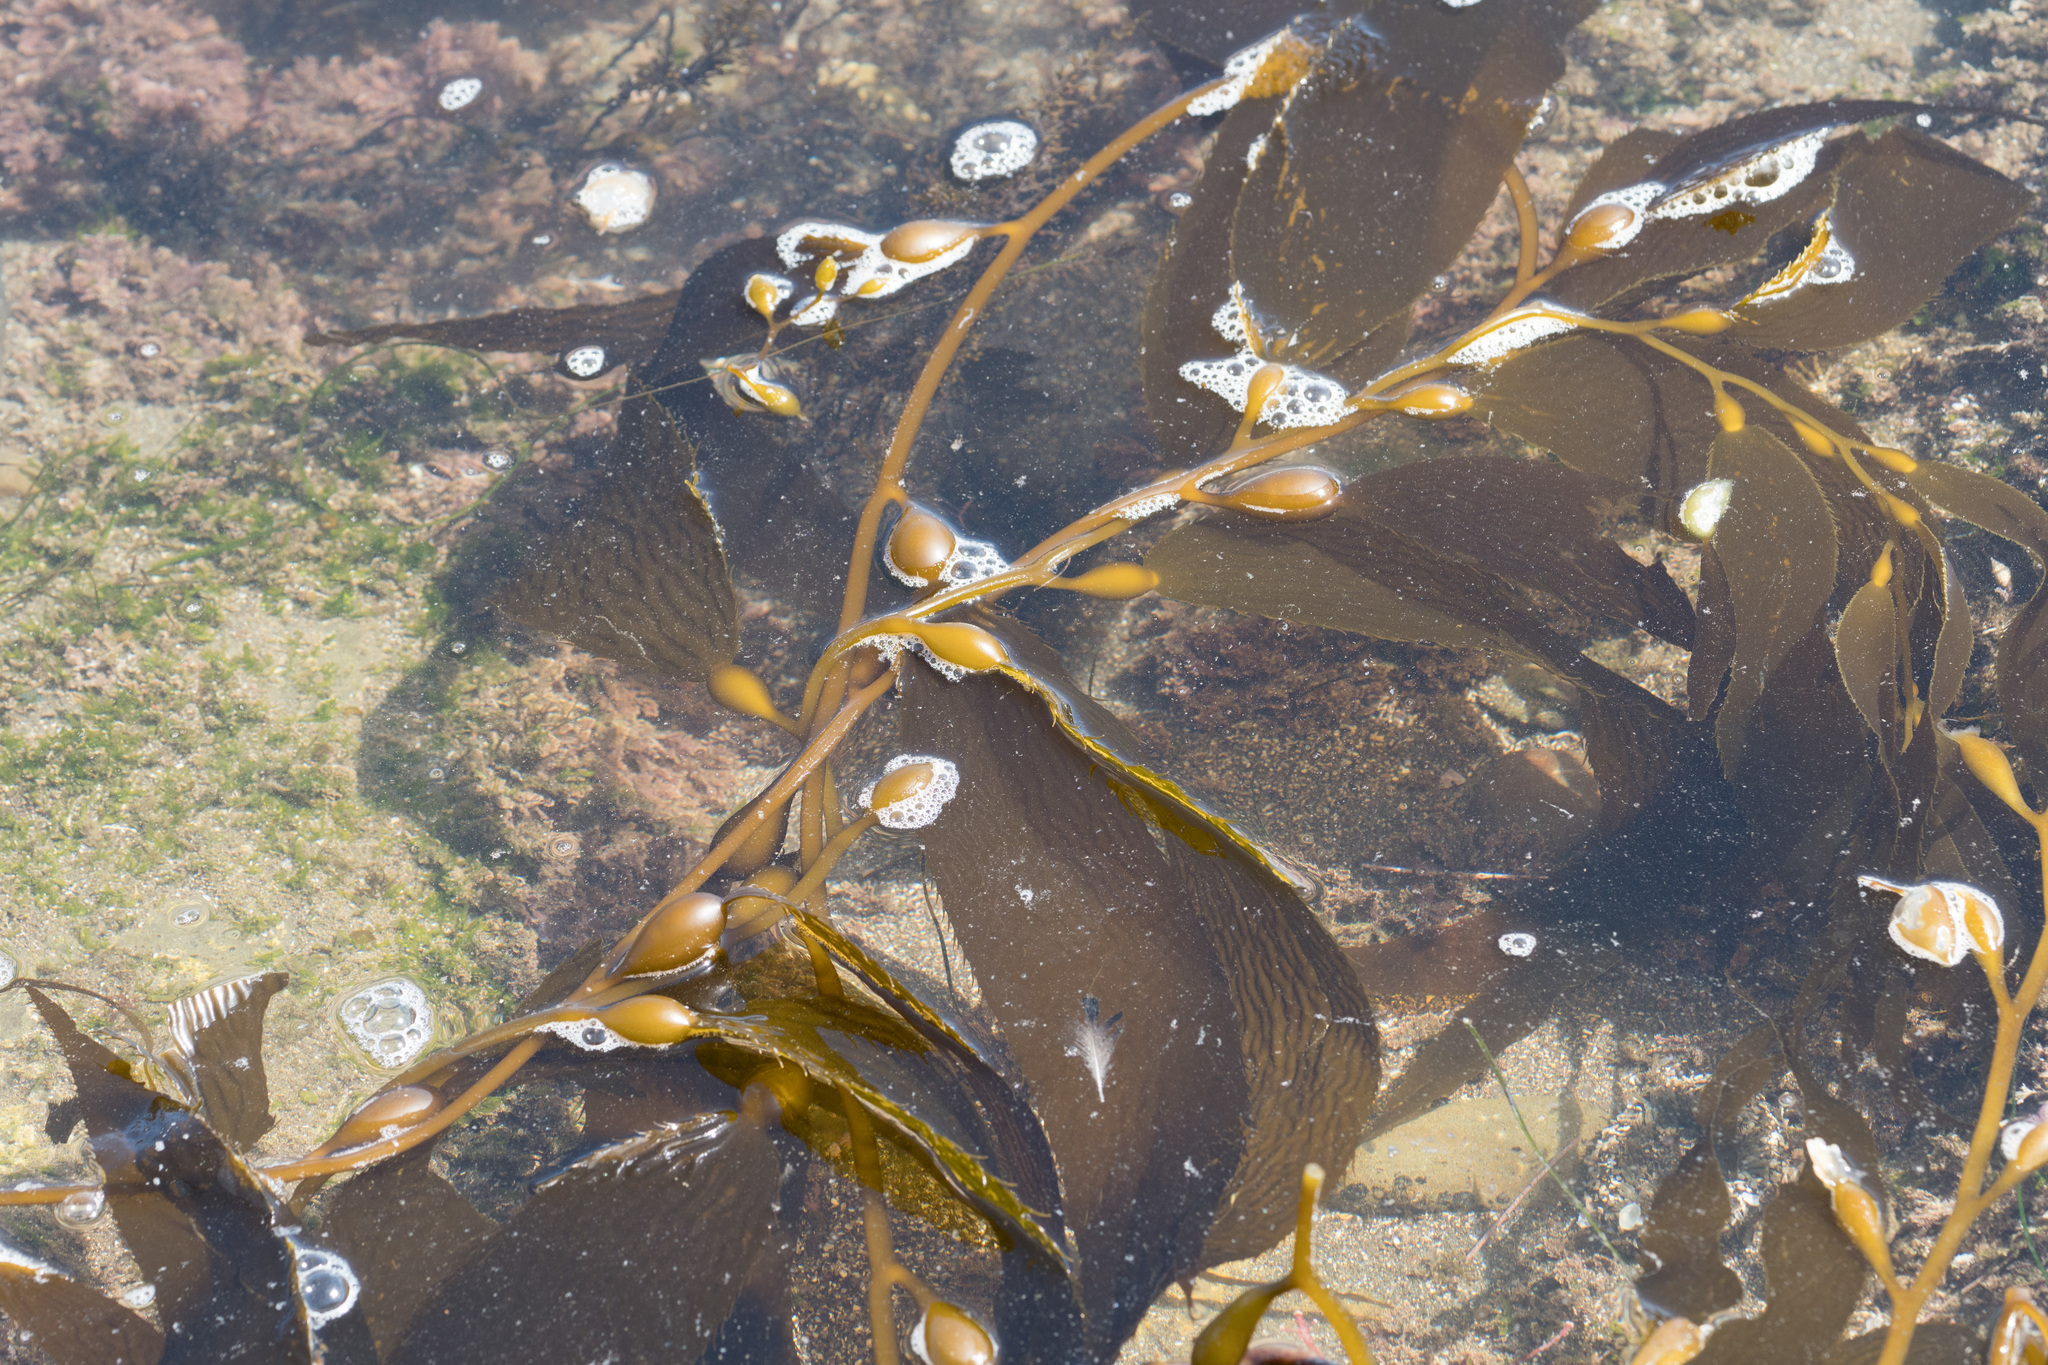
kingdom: Chromista
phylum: Ochrophyta
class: Phaeophyceae
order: Laminariales
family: Laminariaceae
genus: Macrocystis
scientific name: Macrocystis pyrifera
